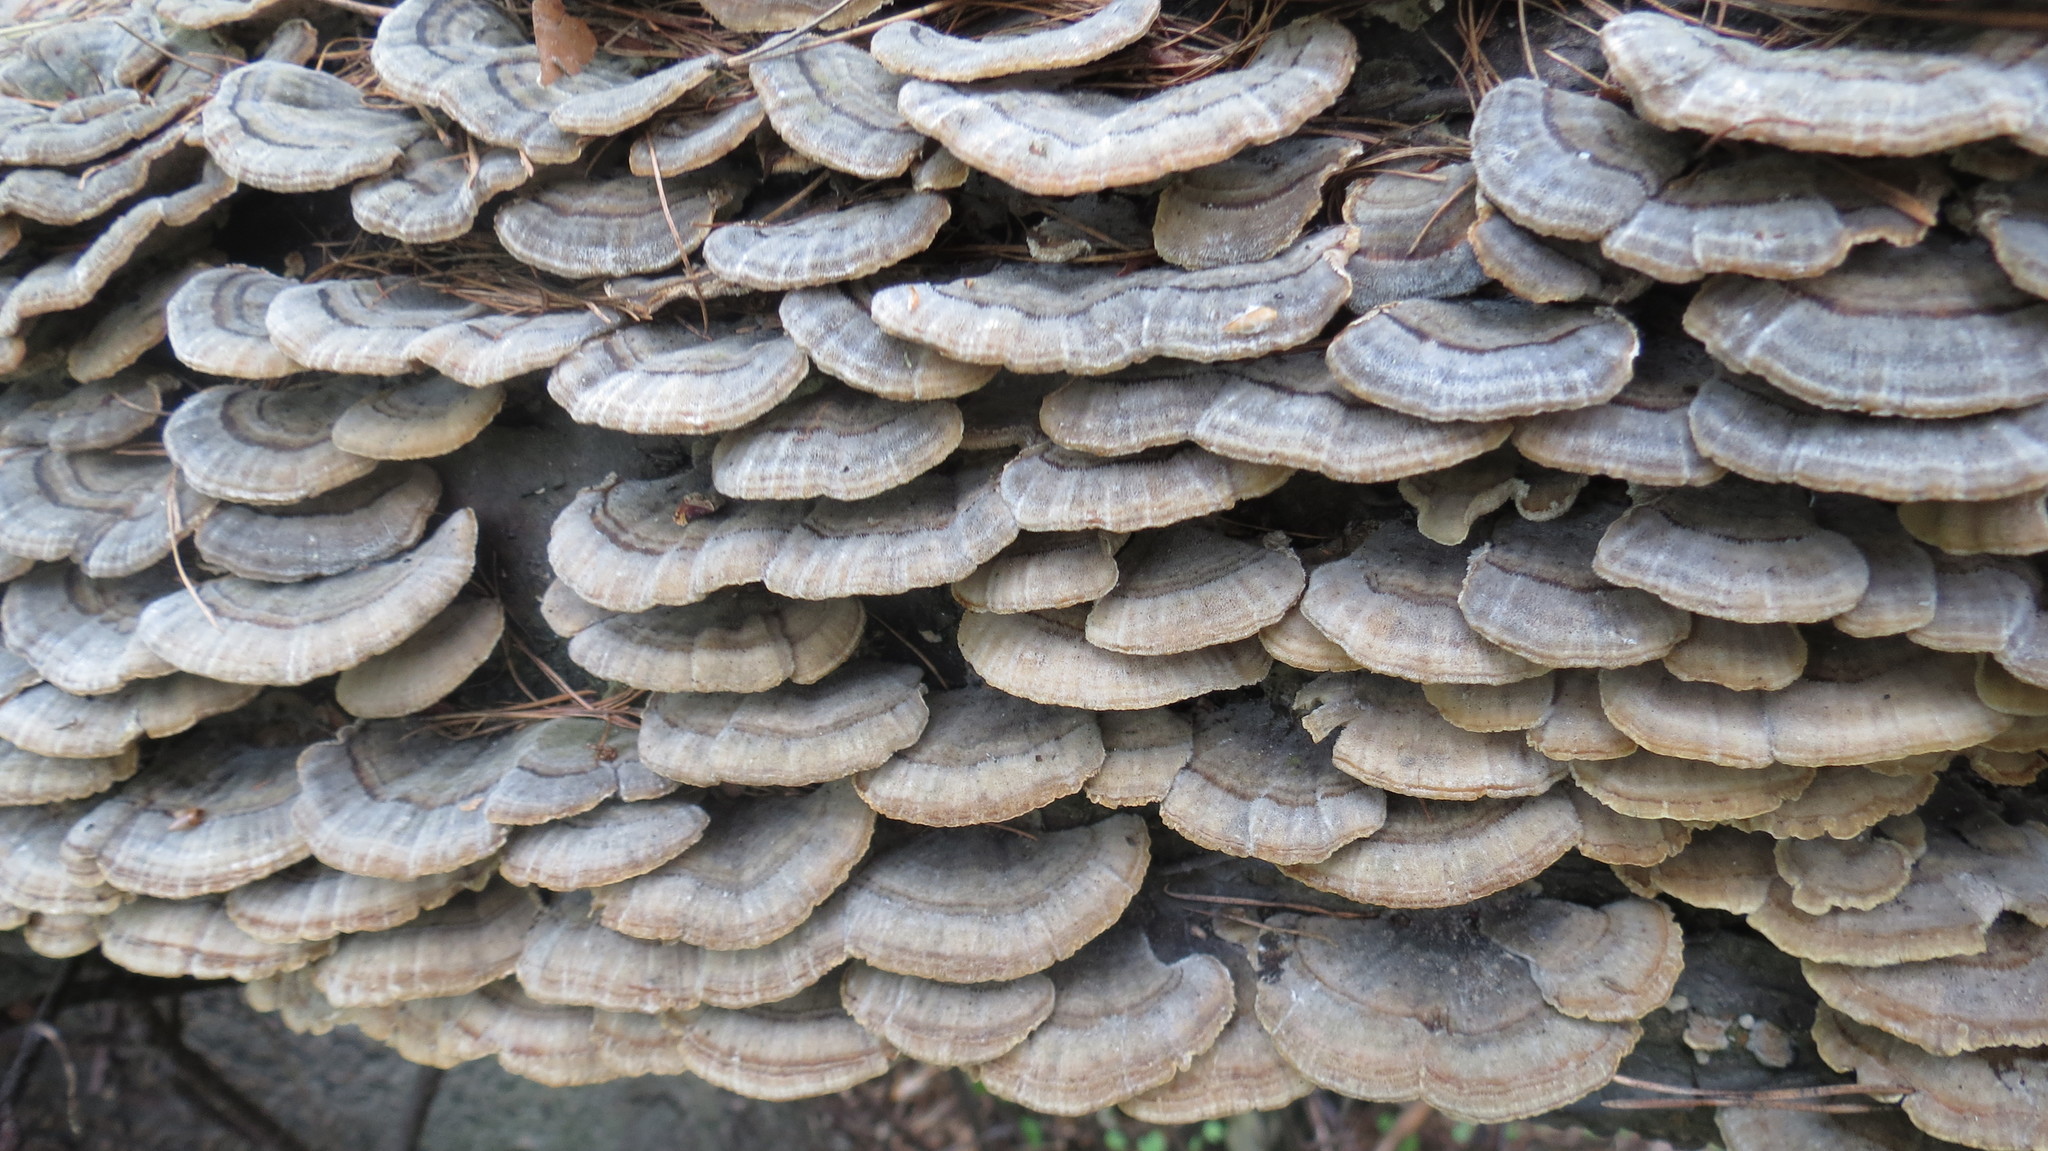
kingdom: Fungi
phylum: Basidiomycota
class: Agaricomycetes
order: Polyporales
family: Polyporaceae
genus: Trametes
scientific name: Trametes versicolor
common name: Turkeytail
